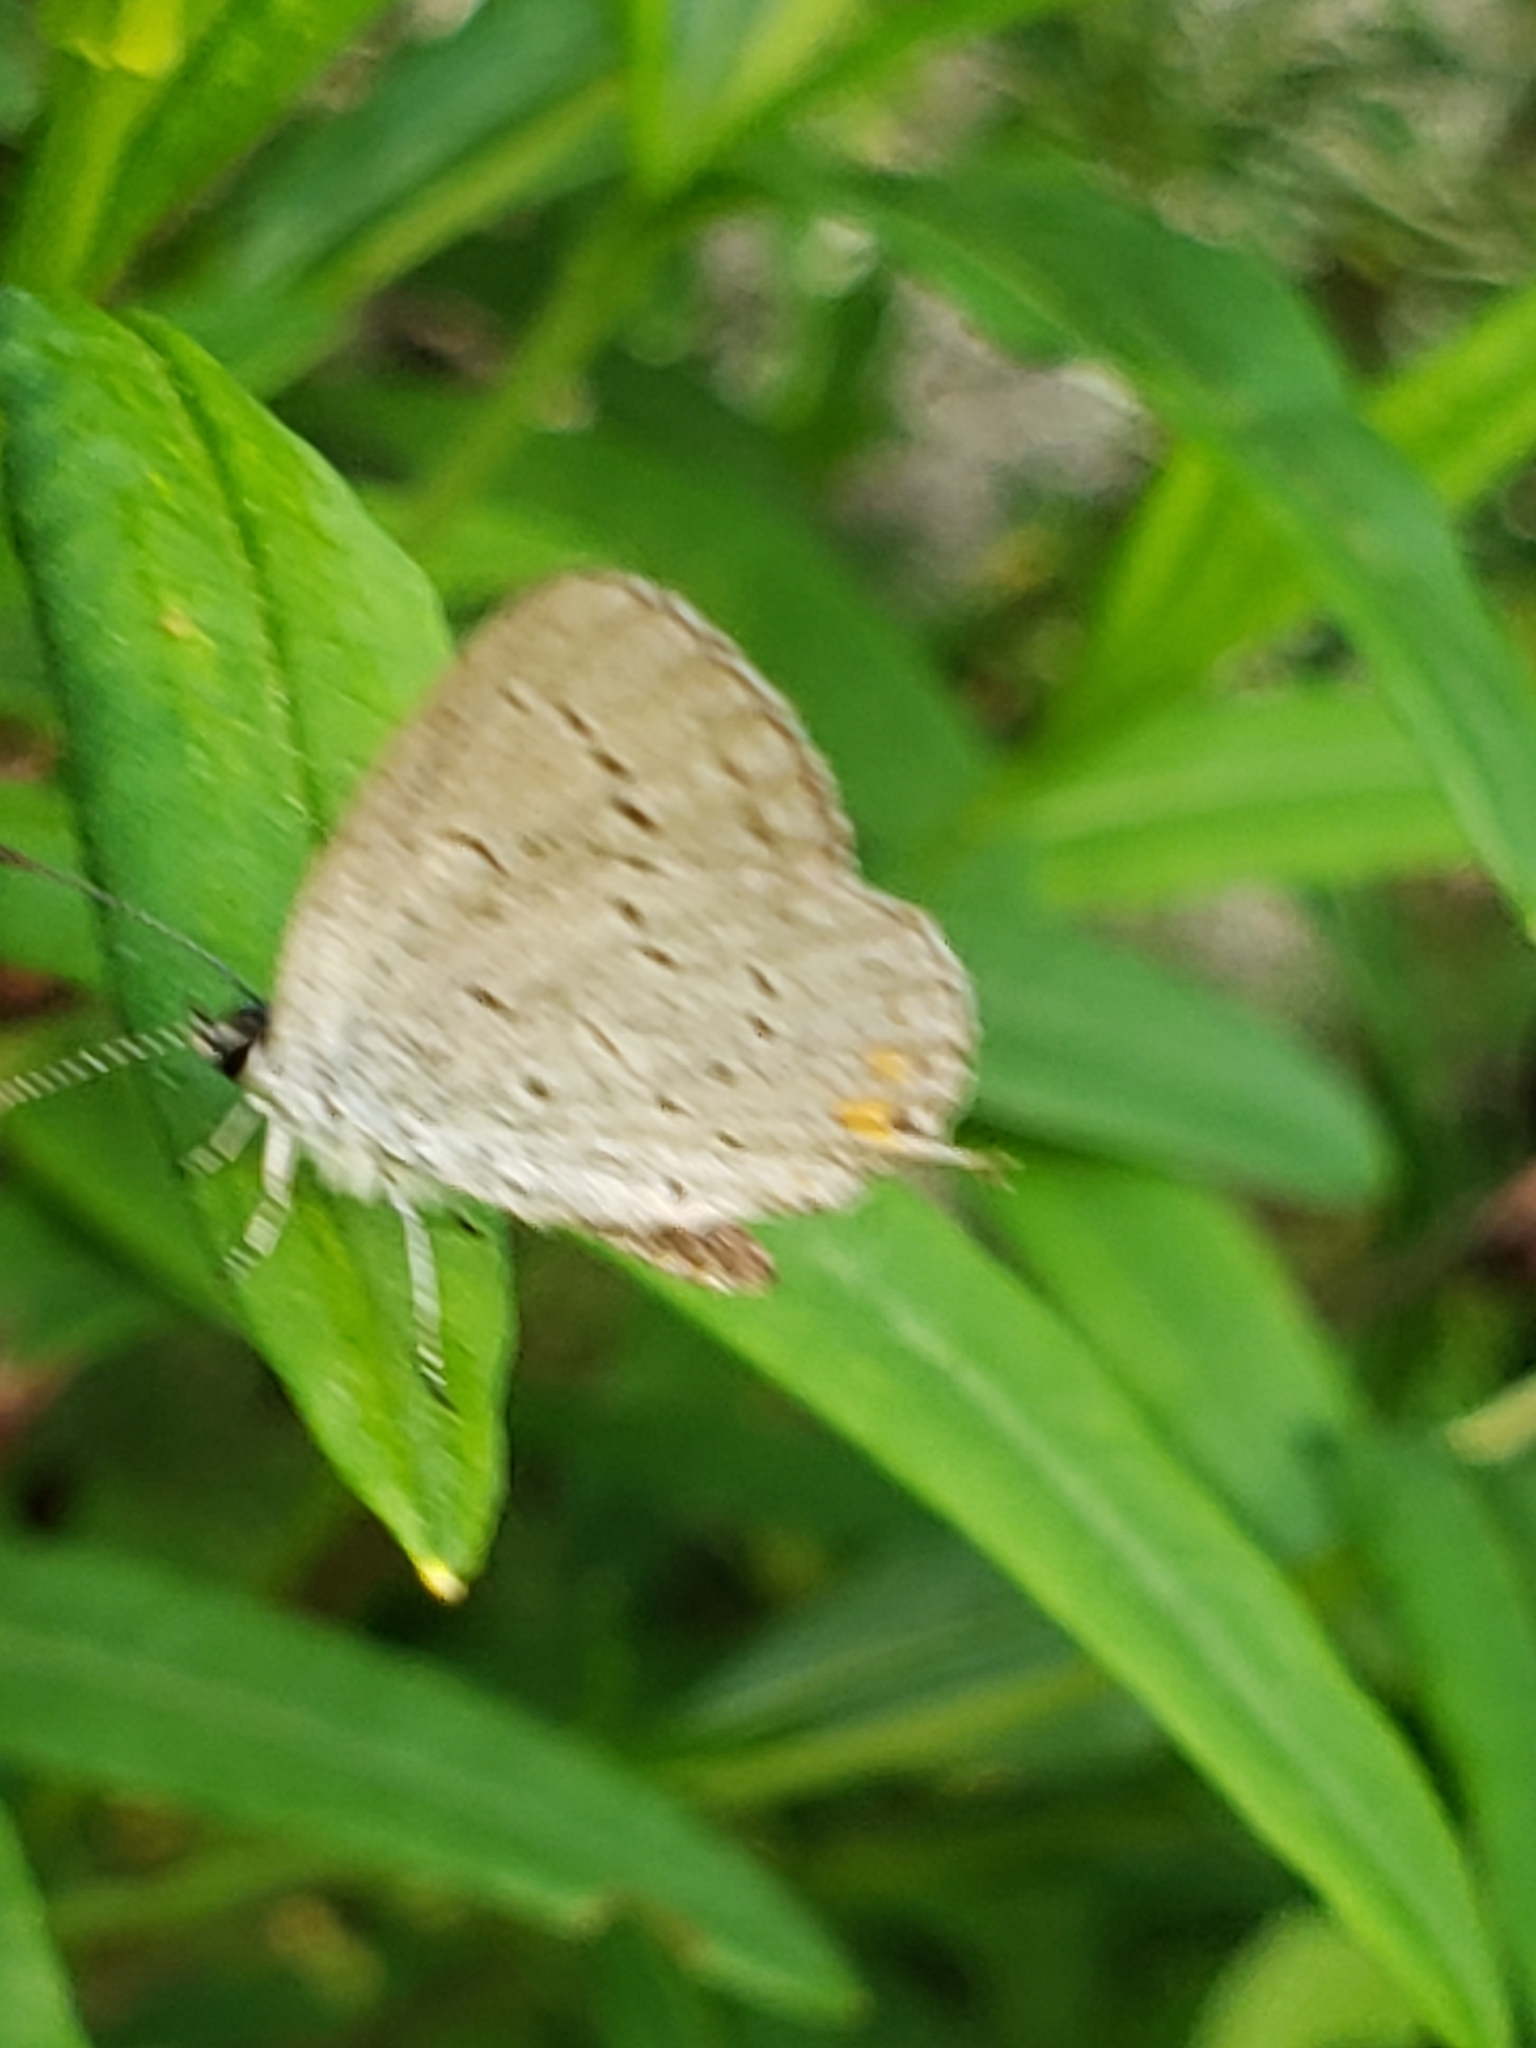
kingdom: Animalia
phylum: Arthropoda
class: Insecta
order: Lepidoptera
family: Lycaenidae
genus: Elkalyce
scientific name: Elkalyce comyntas
